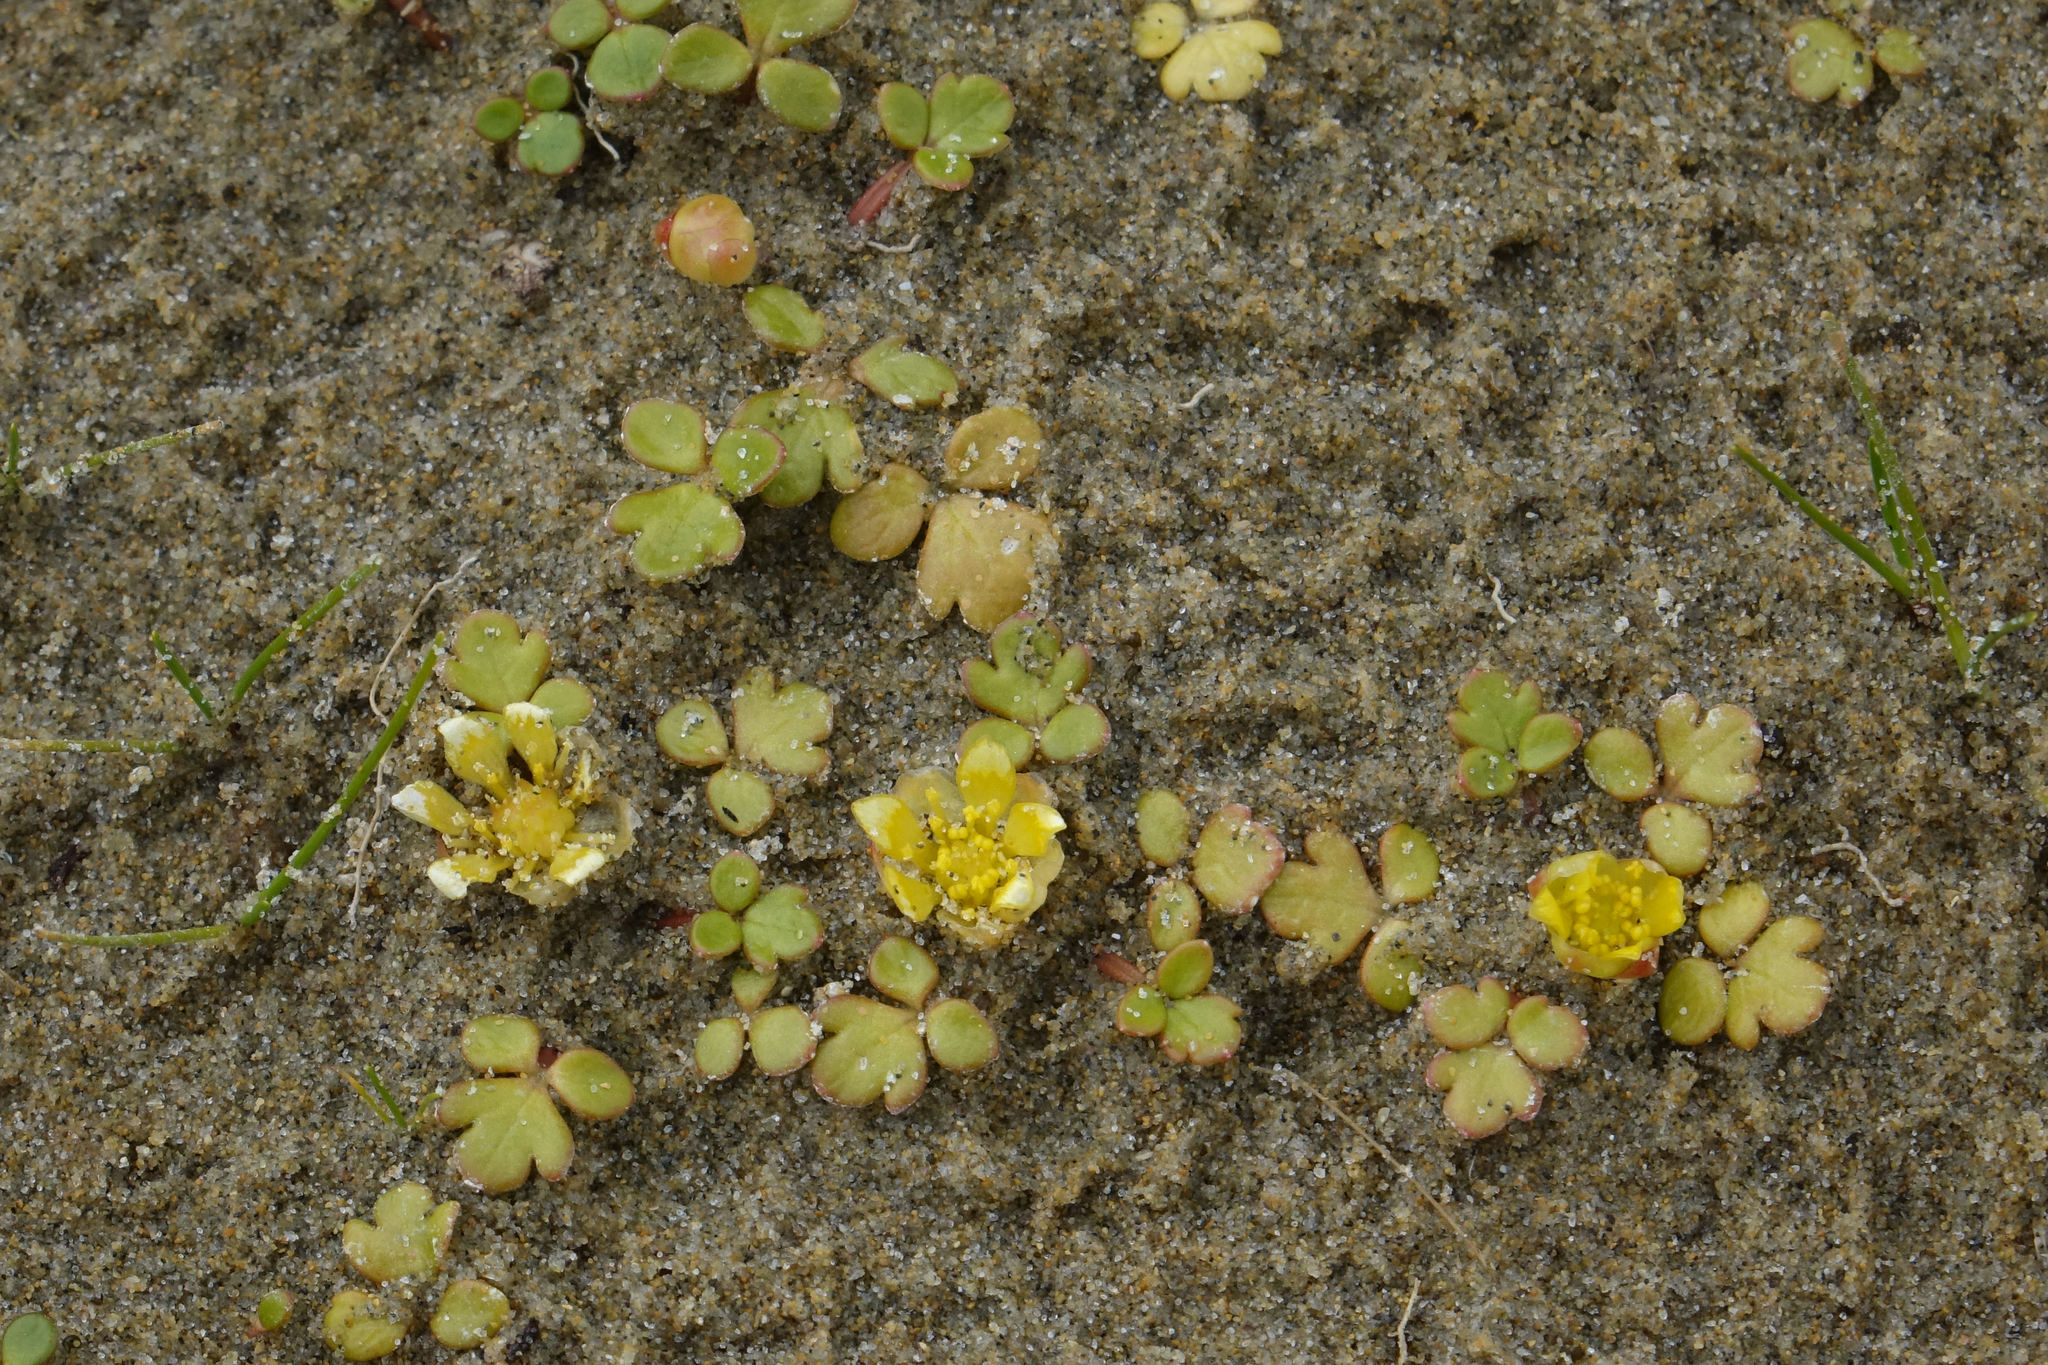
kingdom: Plantae
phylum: Tracheophyta
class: Magnoliopsida
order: Ranunculales
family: Ranunculaceae
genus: Ranunculus
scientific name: Ranunculus acaulis
